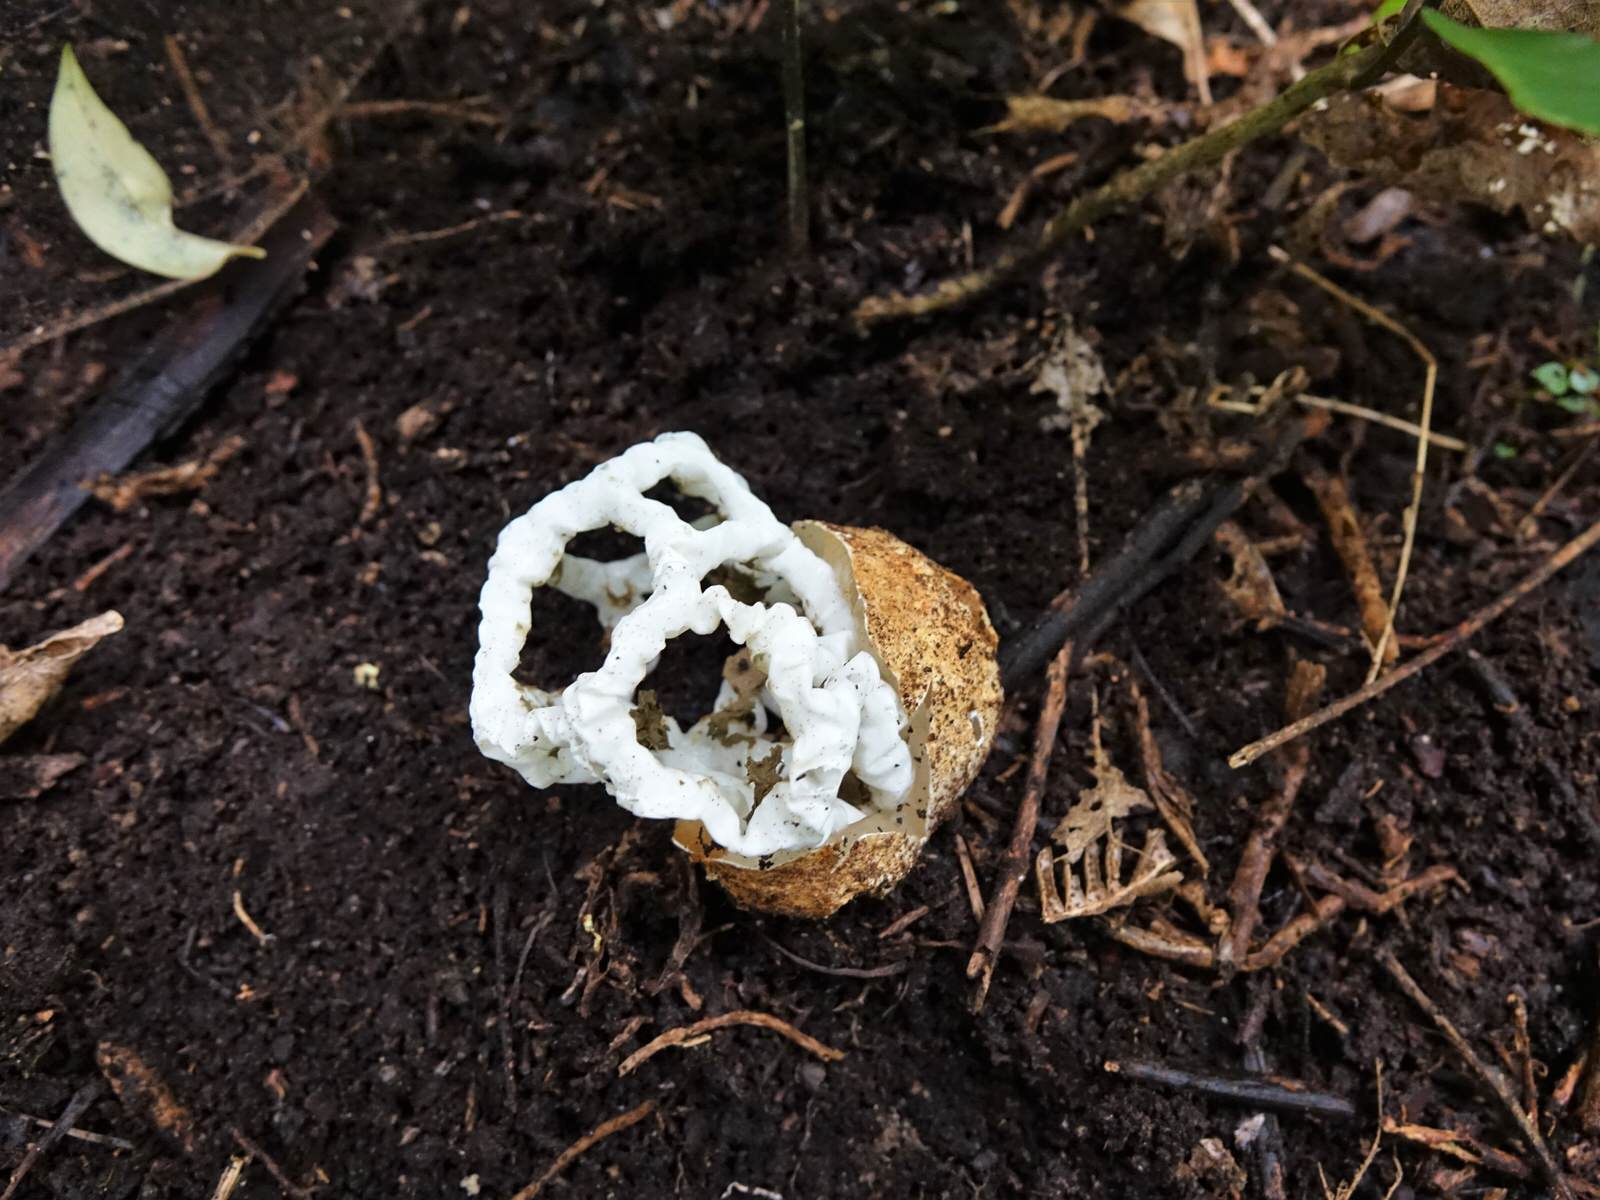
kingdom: Fungi
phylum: Basidiomycota
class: Agaricomycetes
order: Phallales
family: Phallaceae
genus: Ileodictyon
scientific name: Ileodictyon cibarium
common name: Basket fungus
